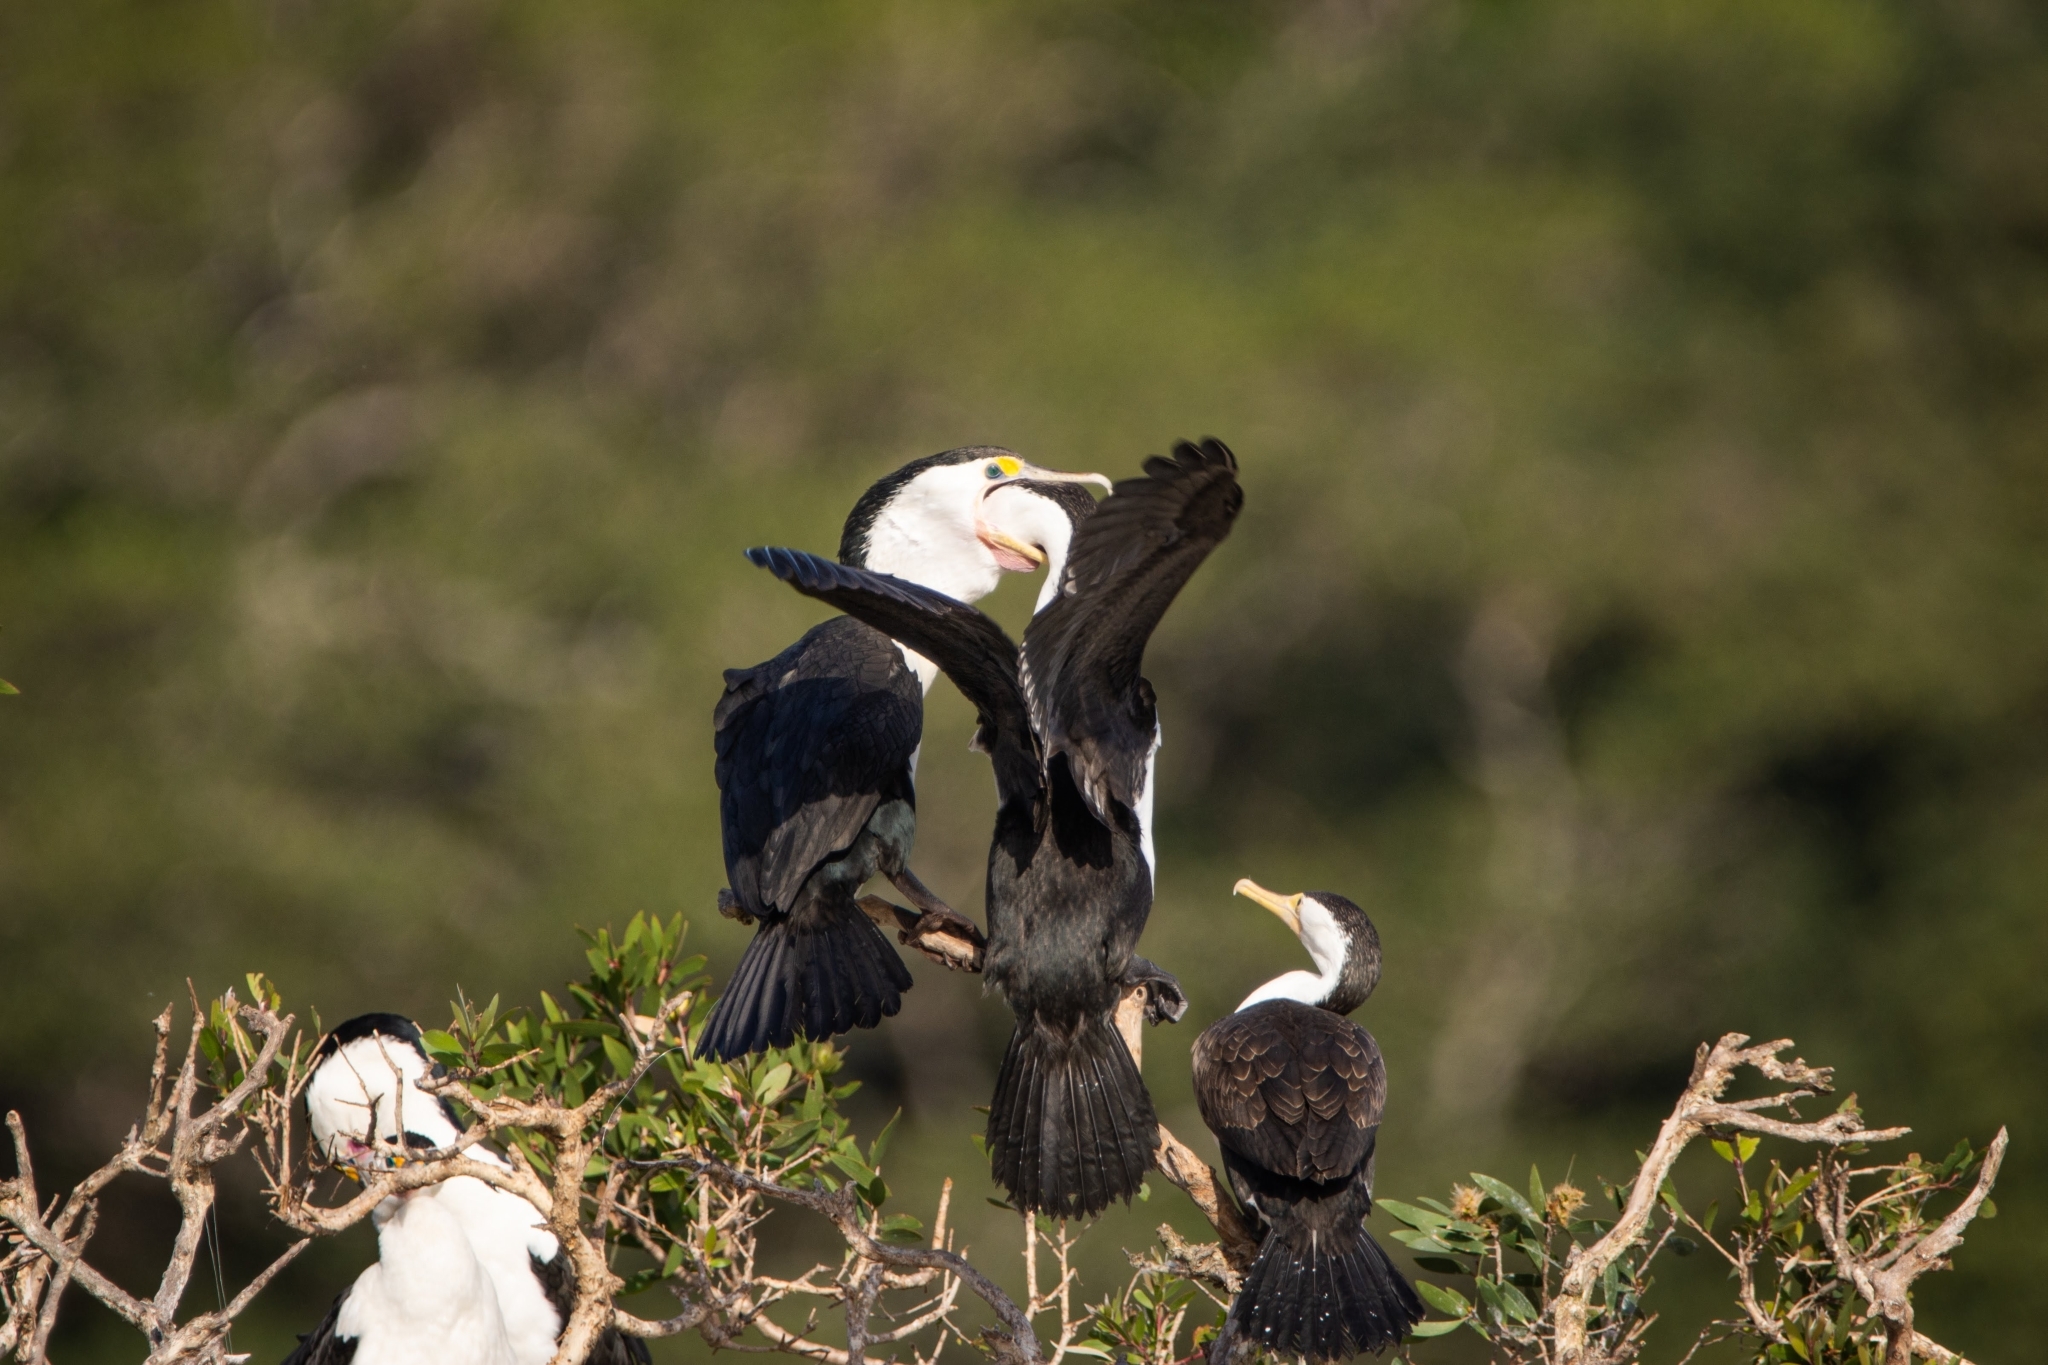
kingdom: Animalia
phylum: Chordata
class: Aves
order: Suliformes
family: Phalacrocoracidae
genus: Phalacrocorax
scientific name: Phalacrocorax varius
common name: Pied cormorant
